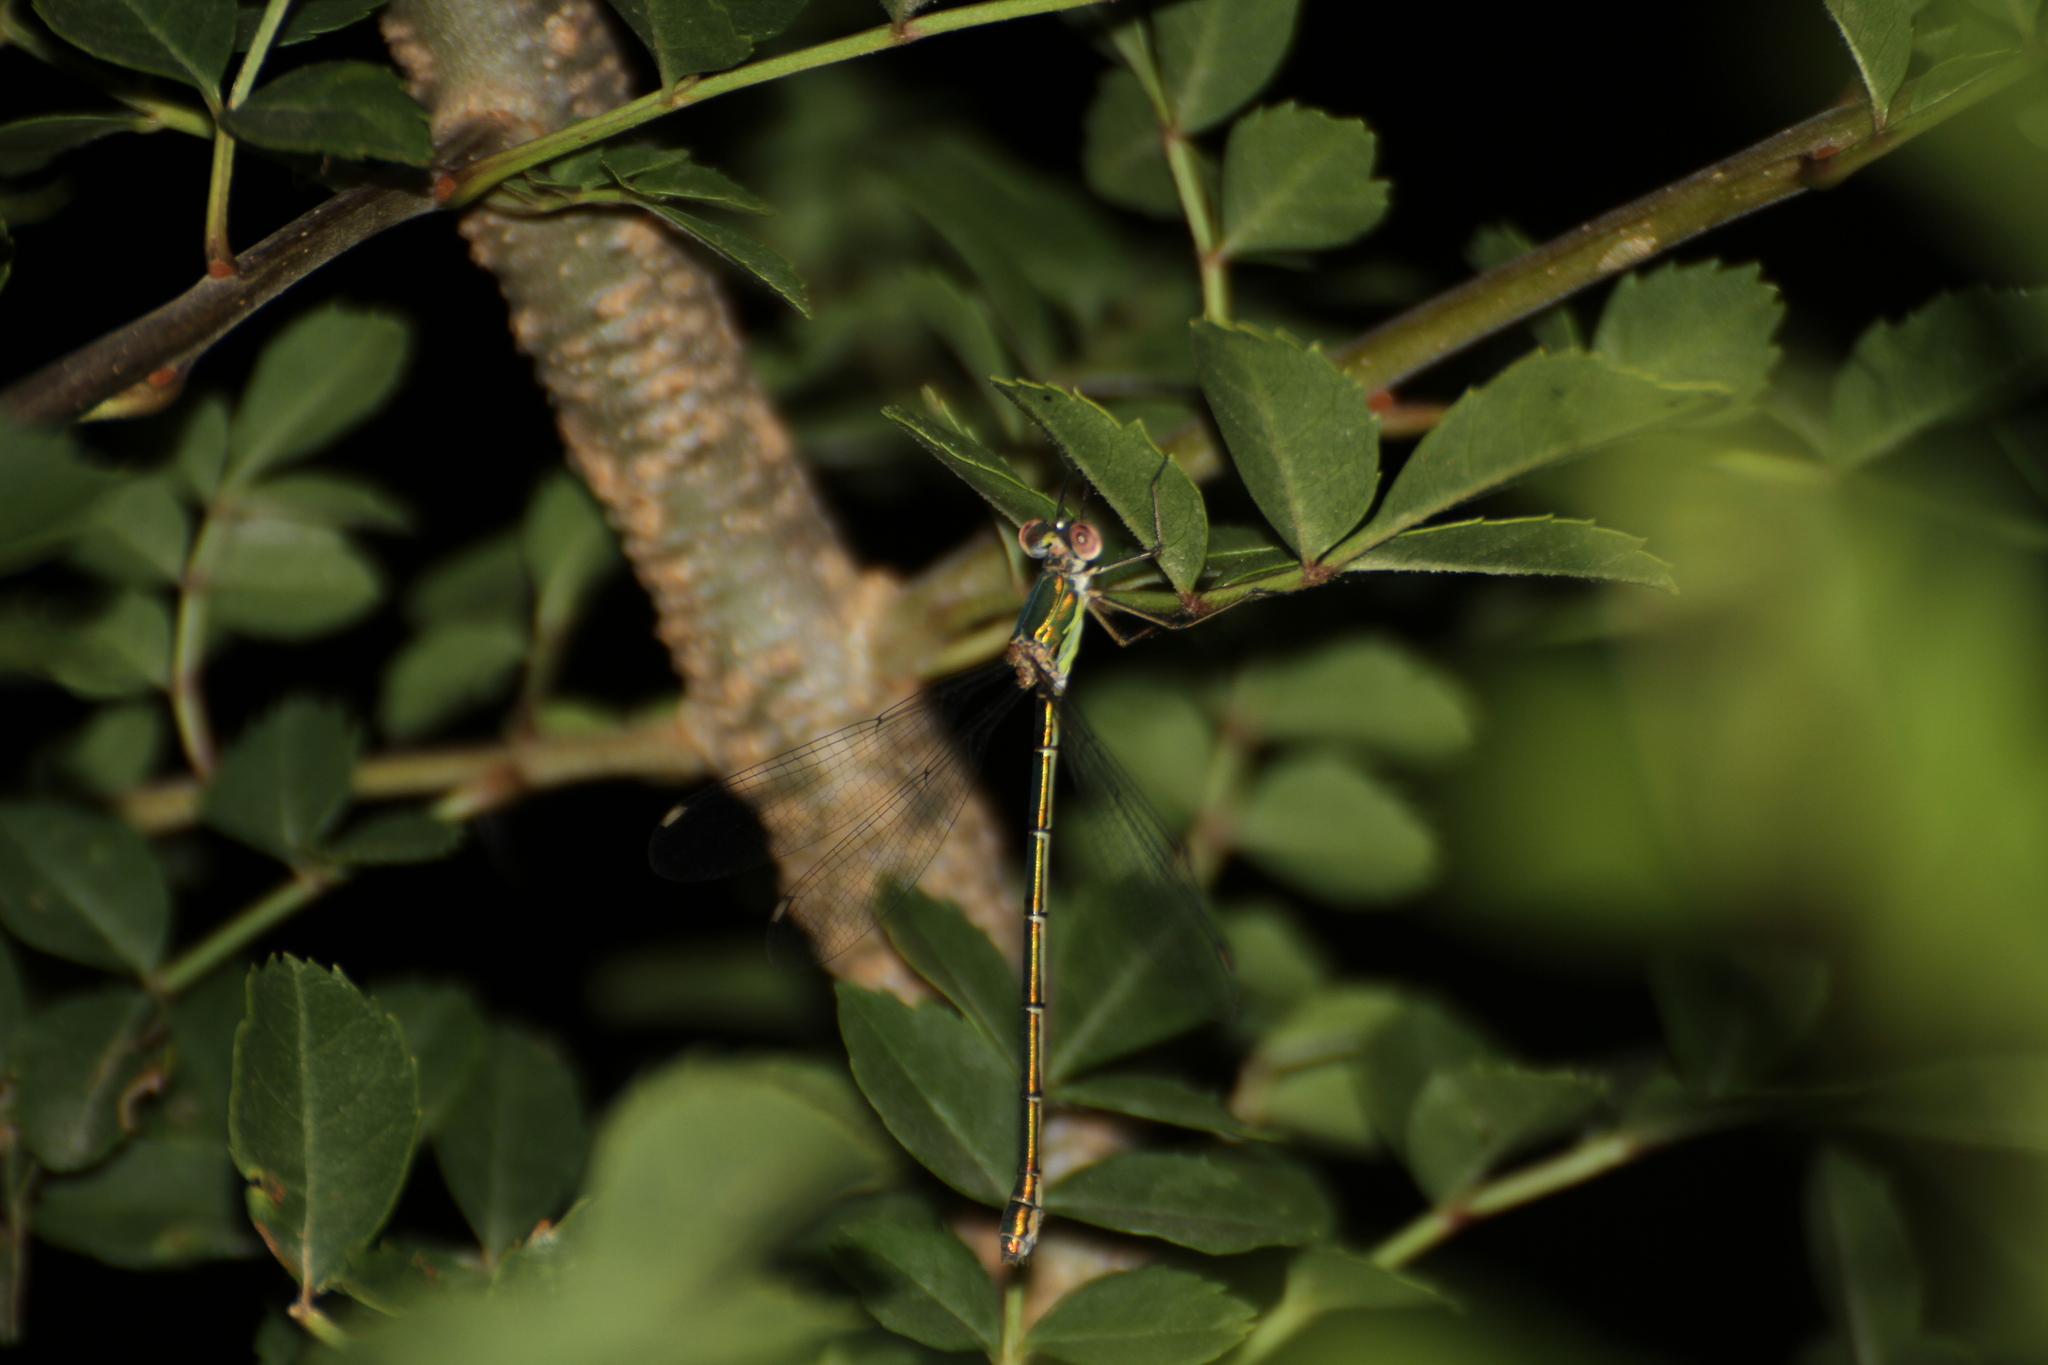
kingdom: Animalia
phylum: Arthropoda
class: Insecta
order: Odonata
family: Lestidae
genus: Chalcolestes
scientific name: Chalcolestes viridis
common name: Green emerald damselfly
